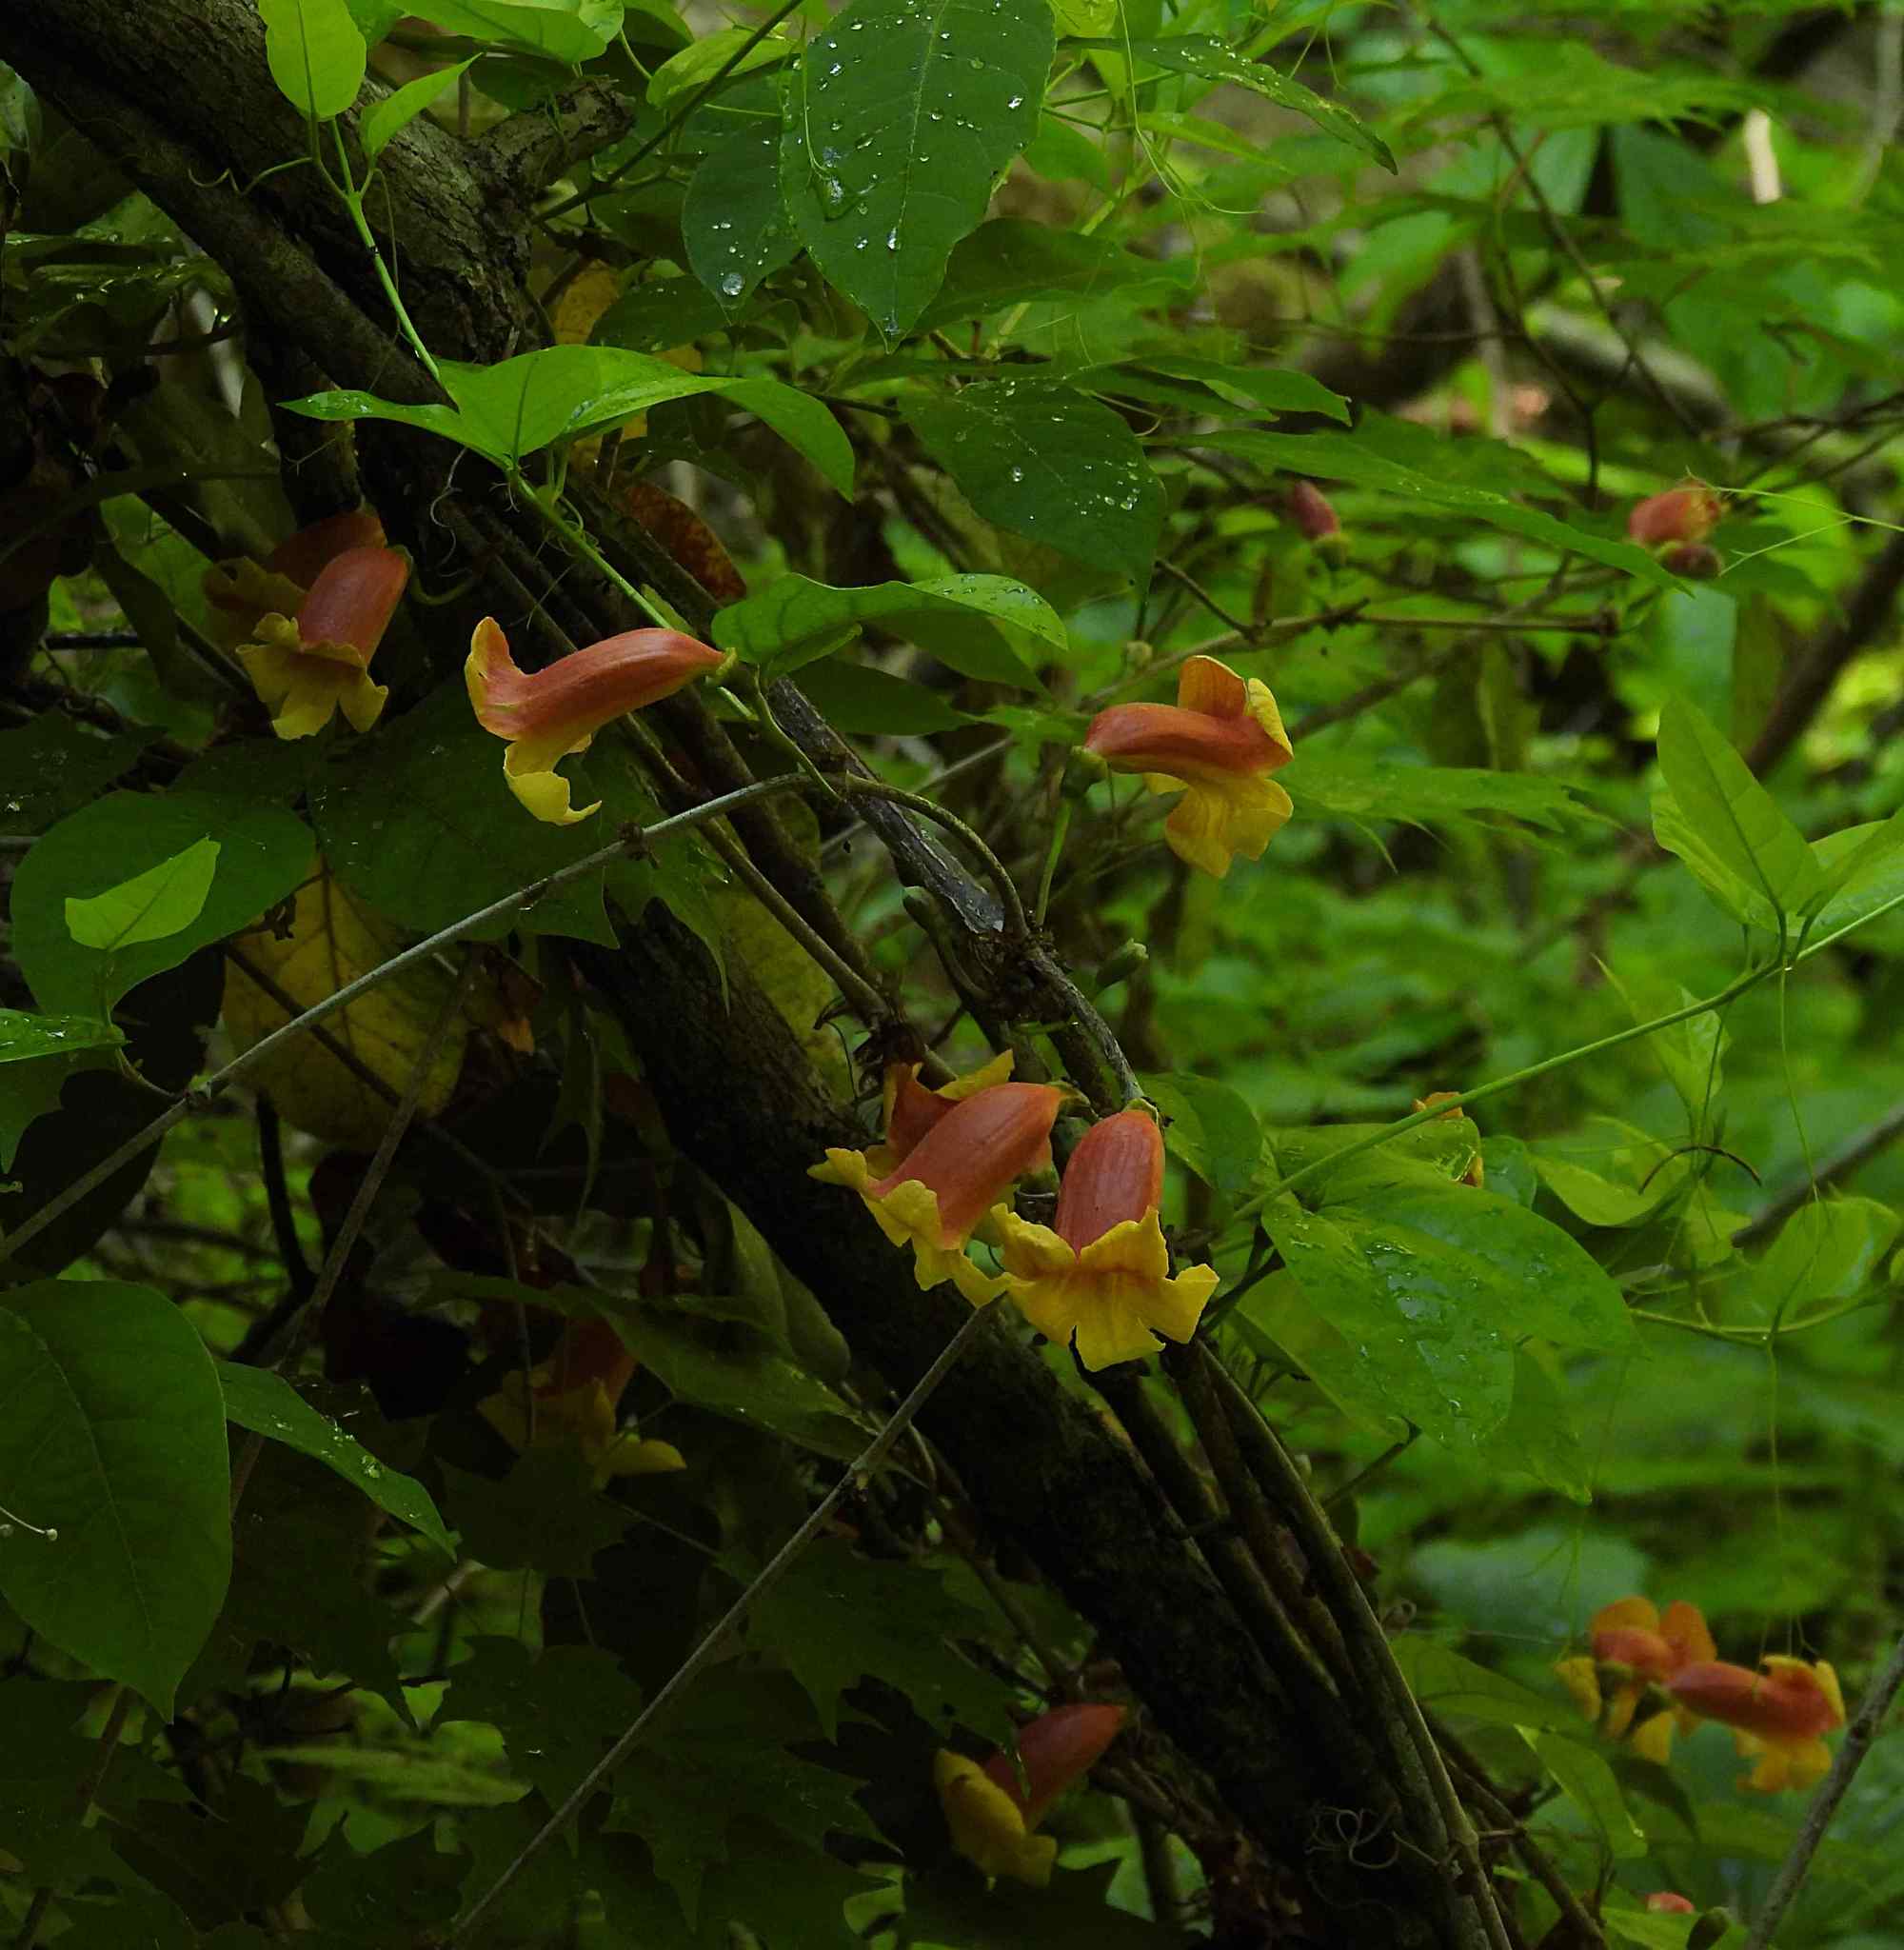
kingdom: Plantae
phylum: Tracheophyta
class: Magnoliopsida
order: Lamiales
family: Bignoniaceae
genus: Bignonia
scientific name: Bignonia capreolata
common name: Crossvine
